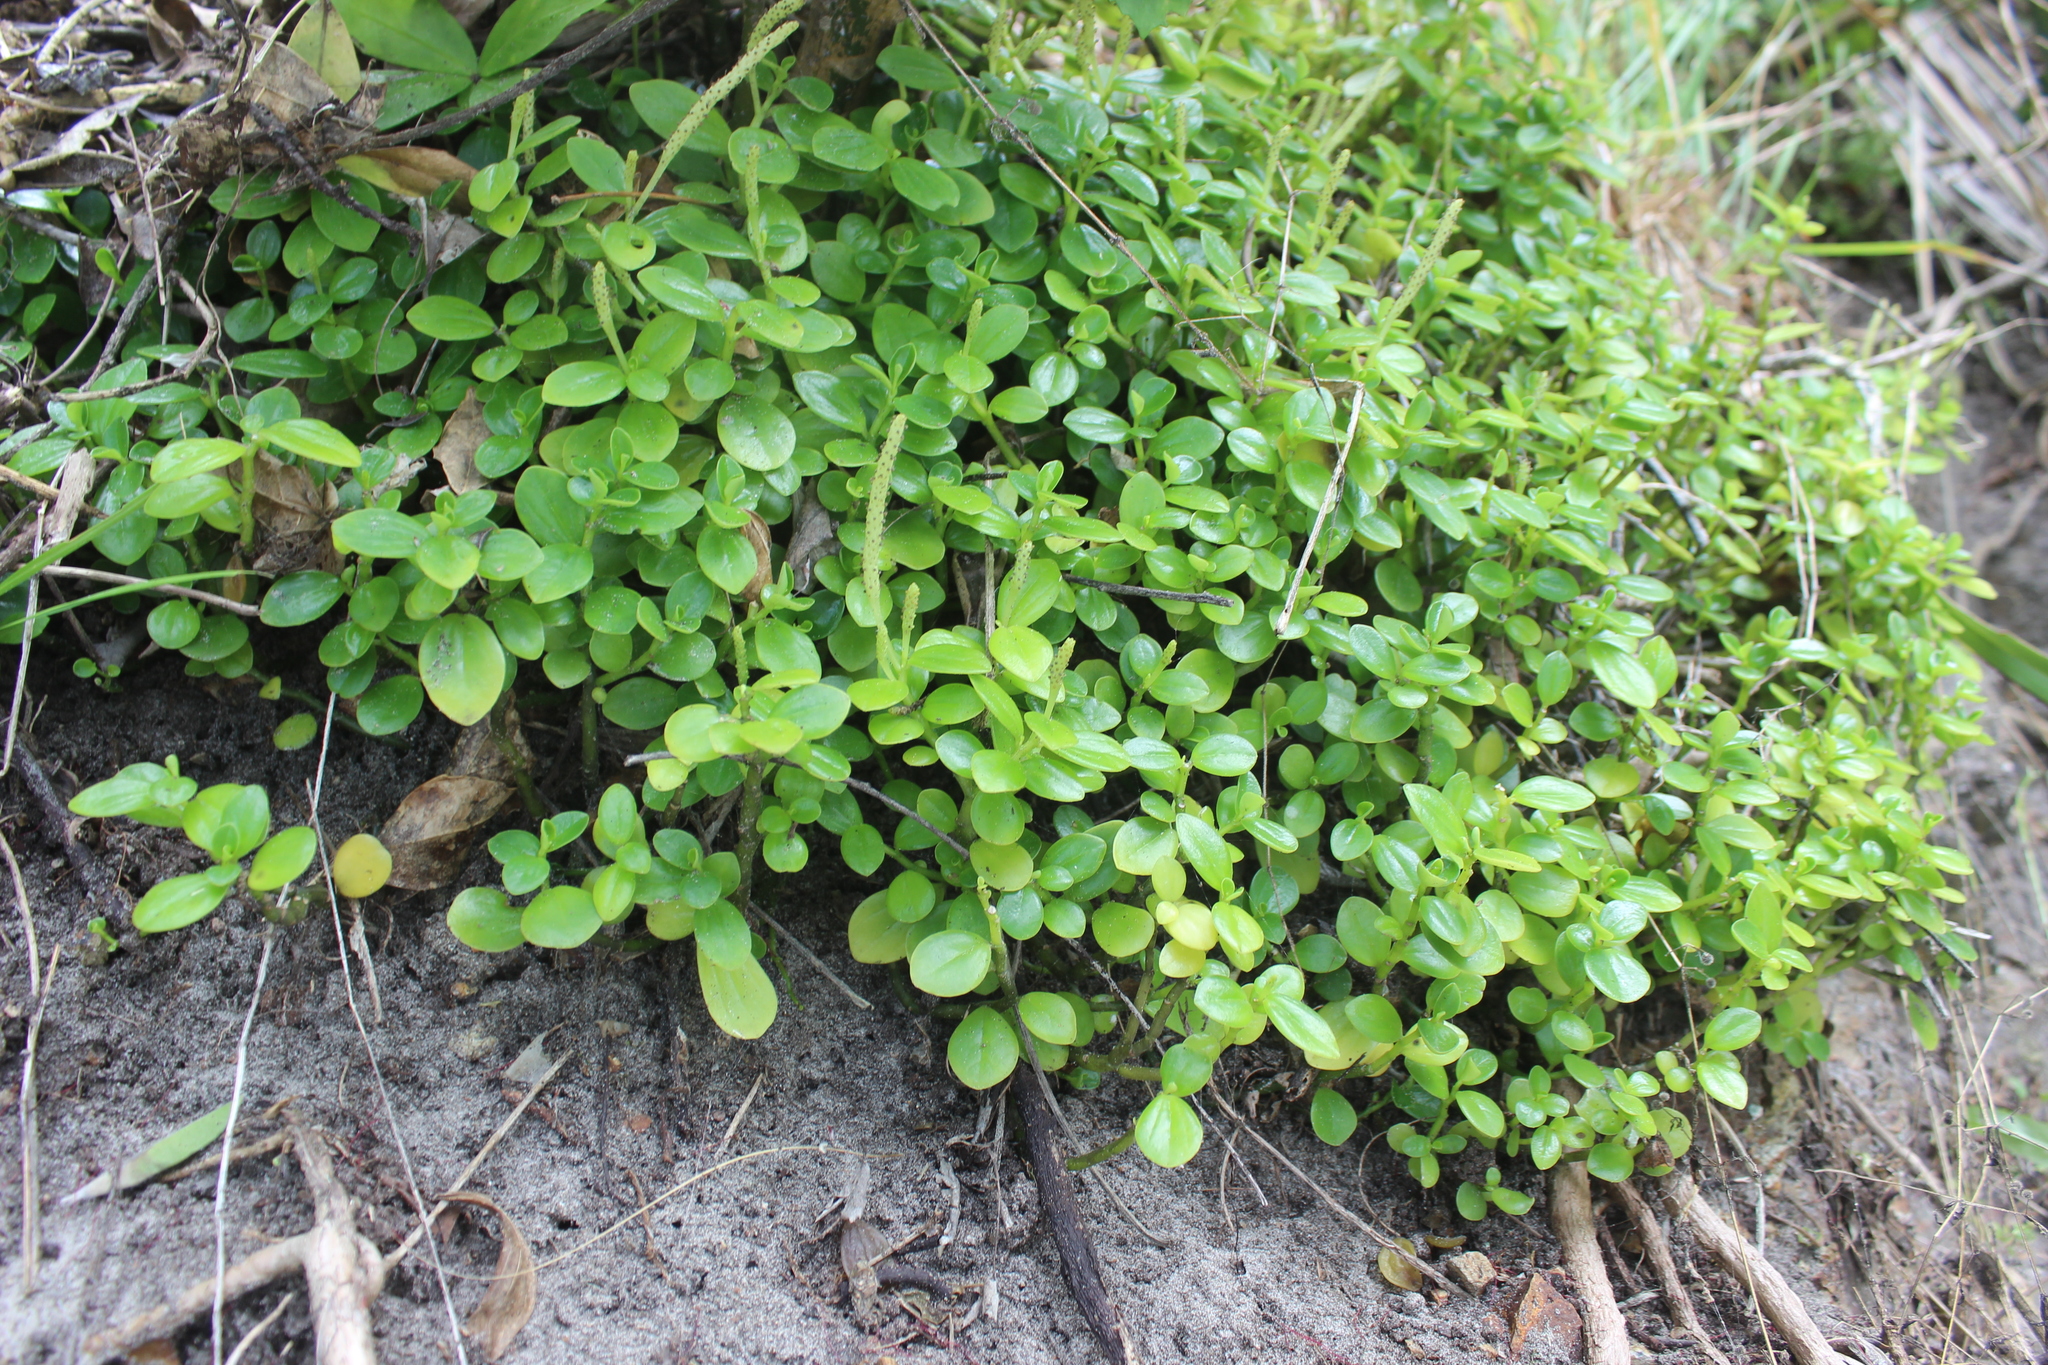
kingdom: Plantae
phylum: Tracheophyta
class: Magnoliopsida
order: Piperales
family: Piperaceae
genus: Peperomia
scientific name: Peperomia urvilleana
